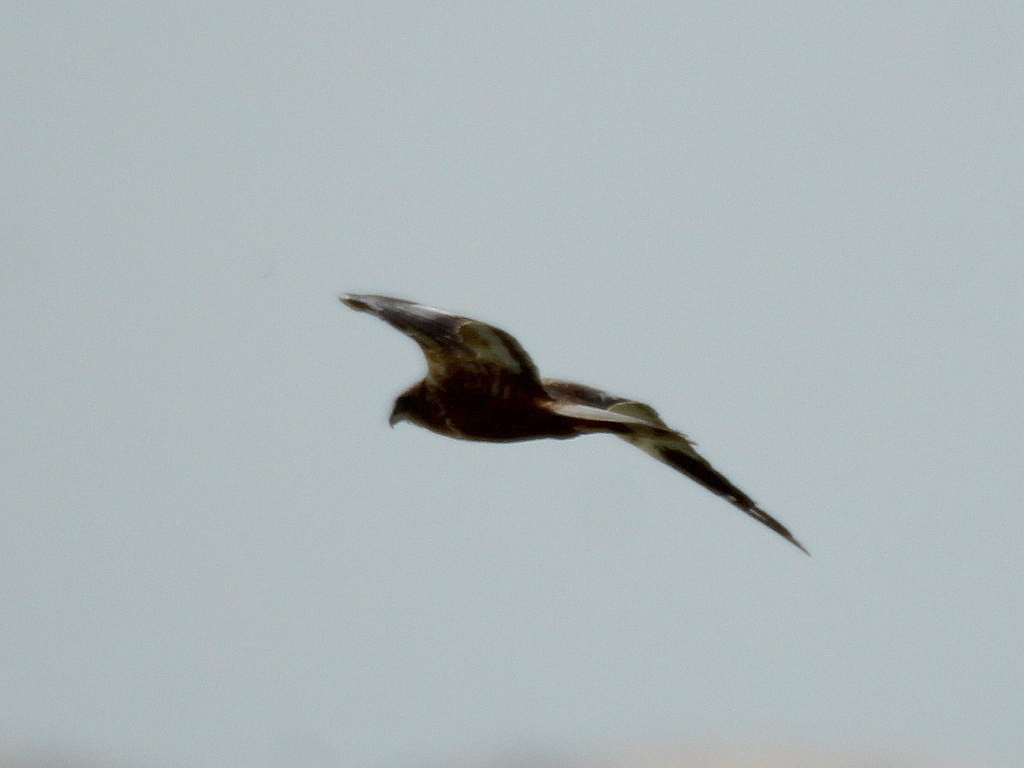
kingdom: Animalia
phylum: Chordata
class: Aves
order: Accipitriformes
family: Accipitridae
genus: Circus
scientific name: Circus aeruginosus
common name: Western marsh harrier
